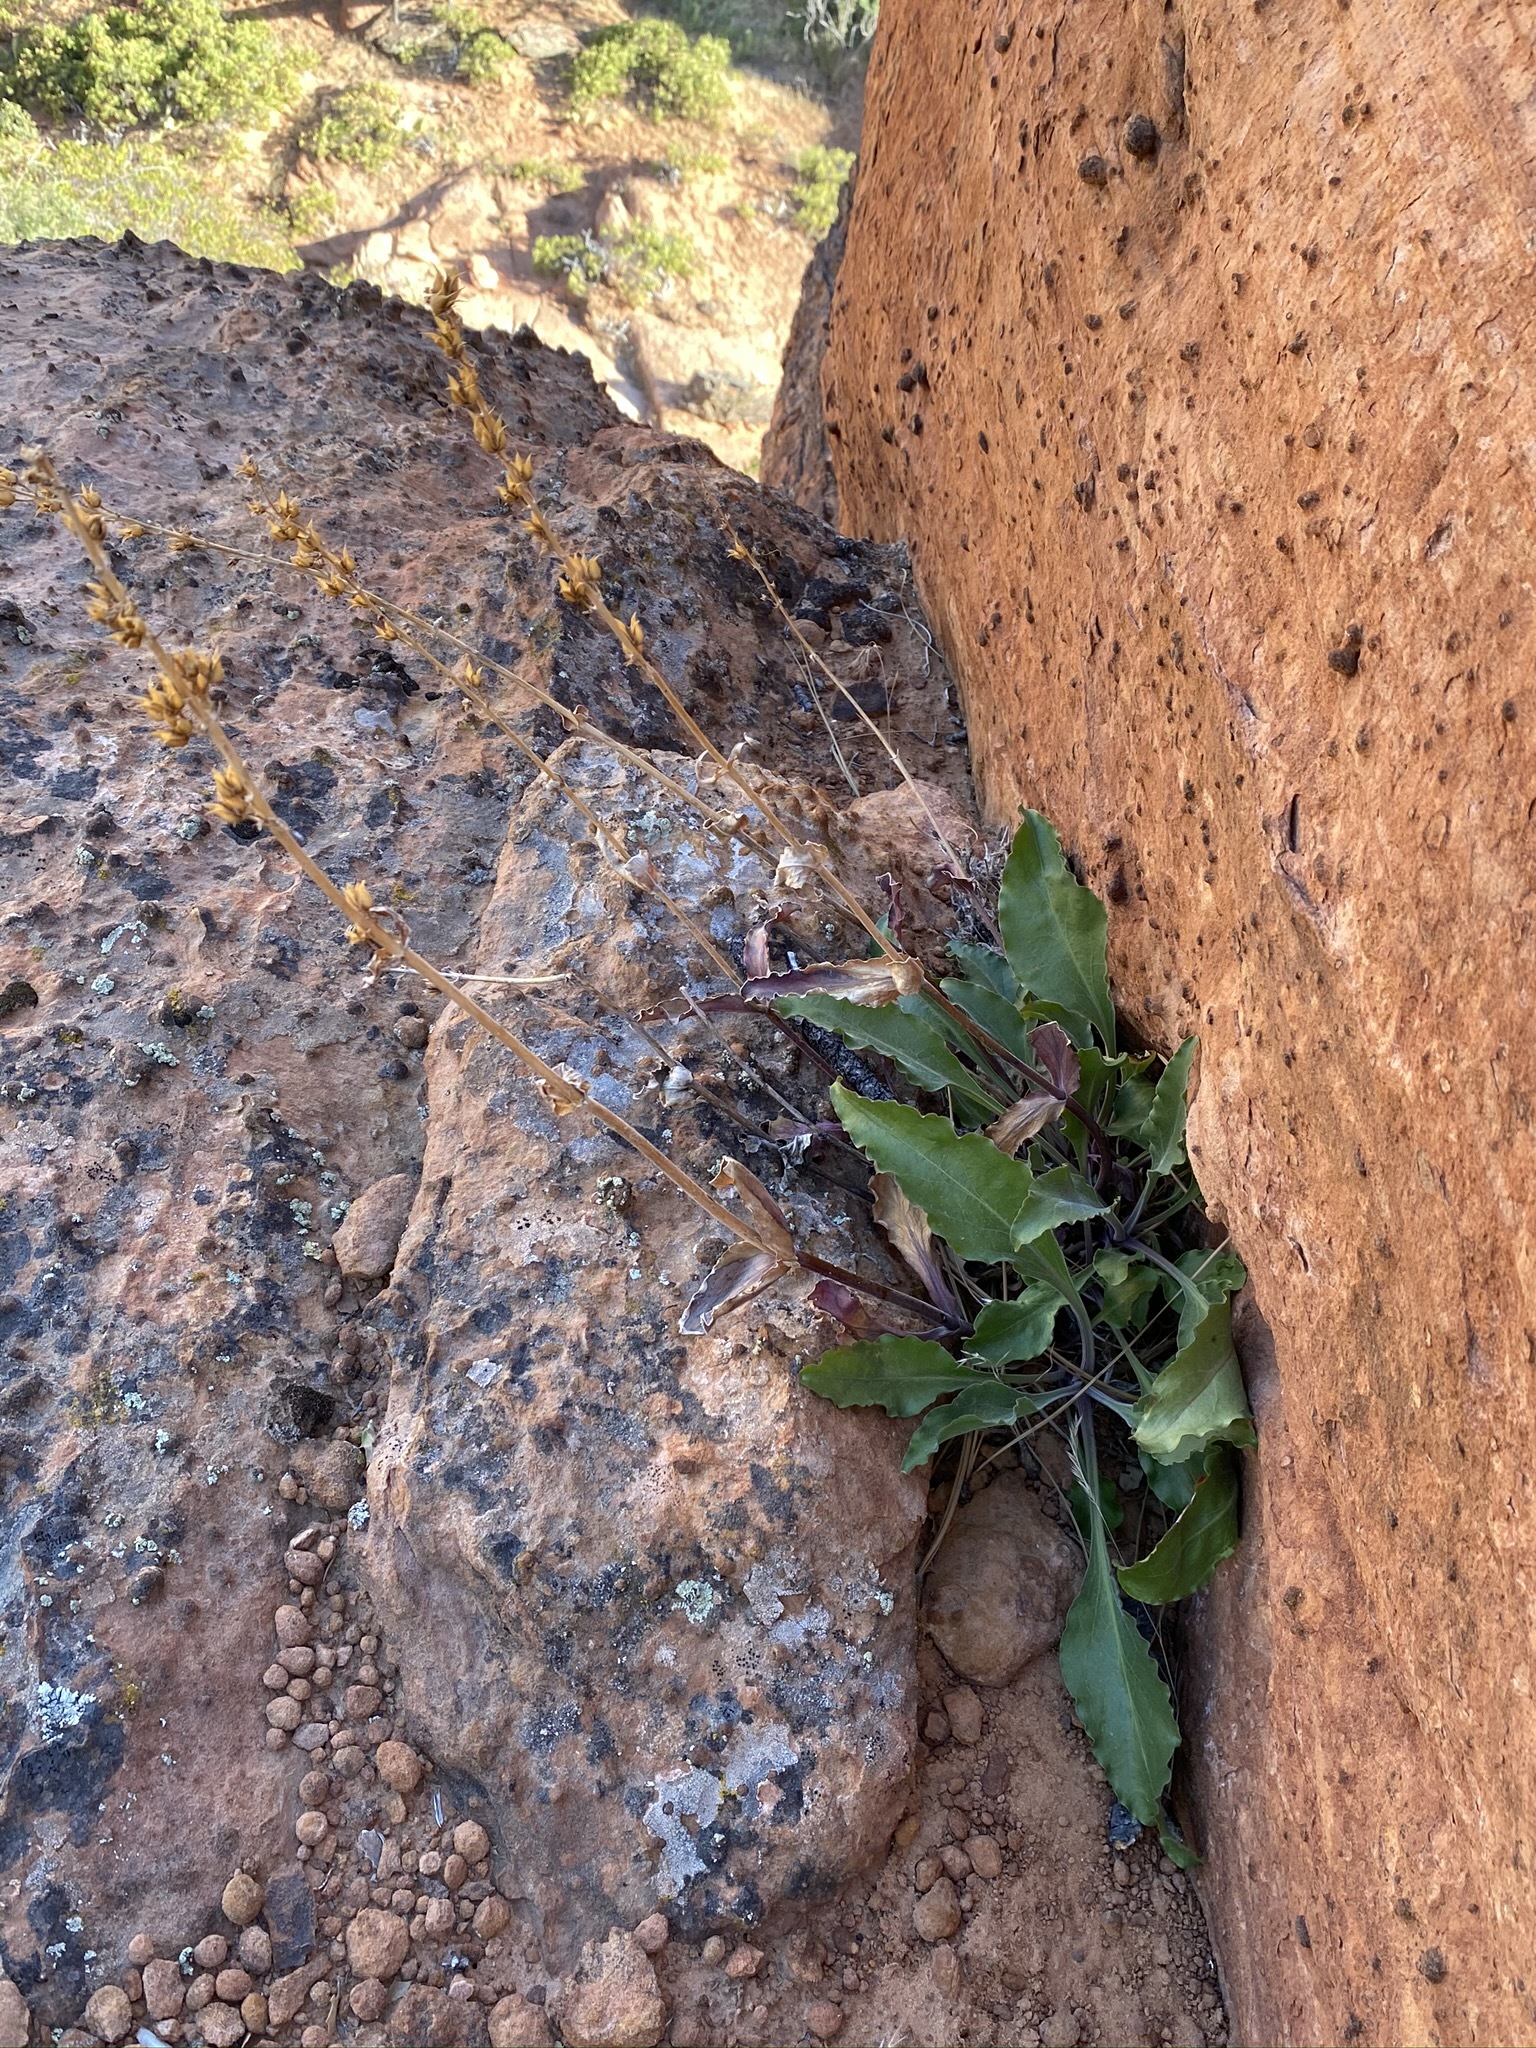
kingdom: Plantae
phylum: Tracheophyta
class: Magnoliopsida
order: Lamiales
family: Plantaginaceae
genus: Penstemon
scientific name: Penstemon eatonii
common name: Eaton's penstemon
